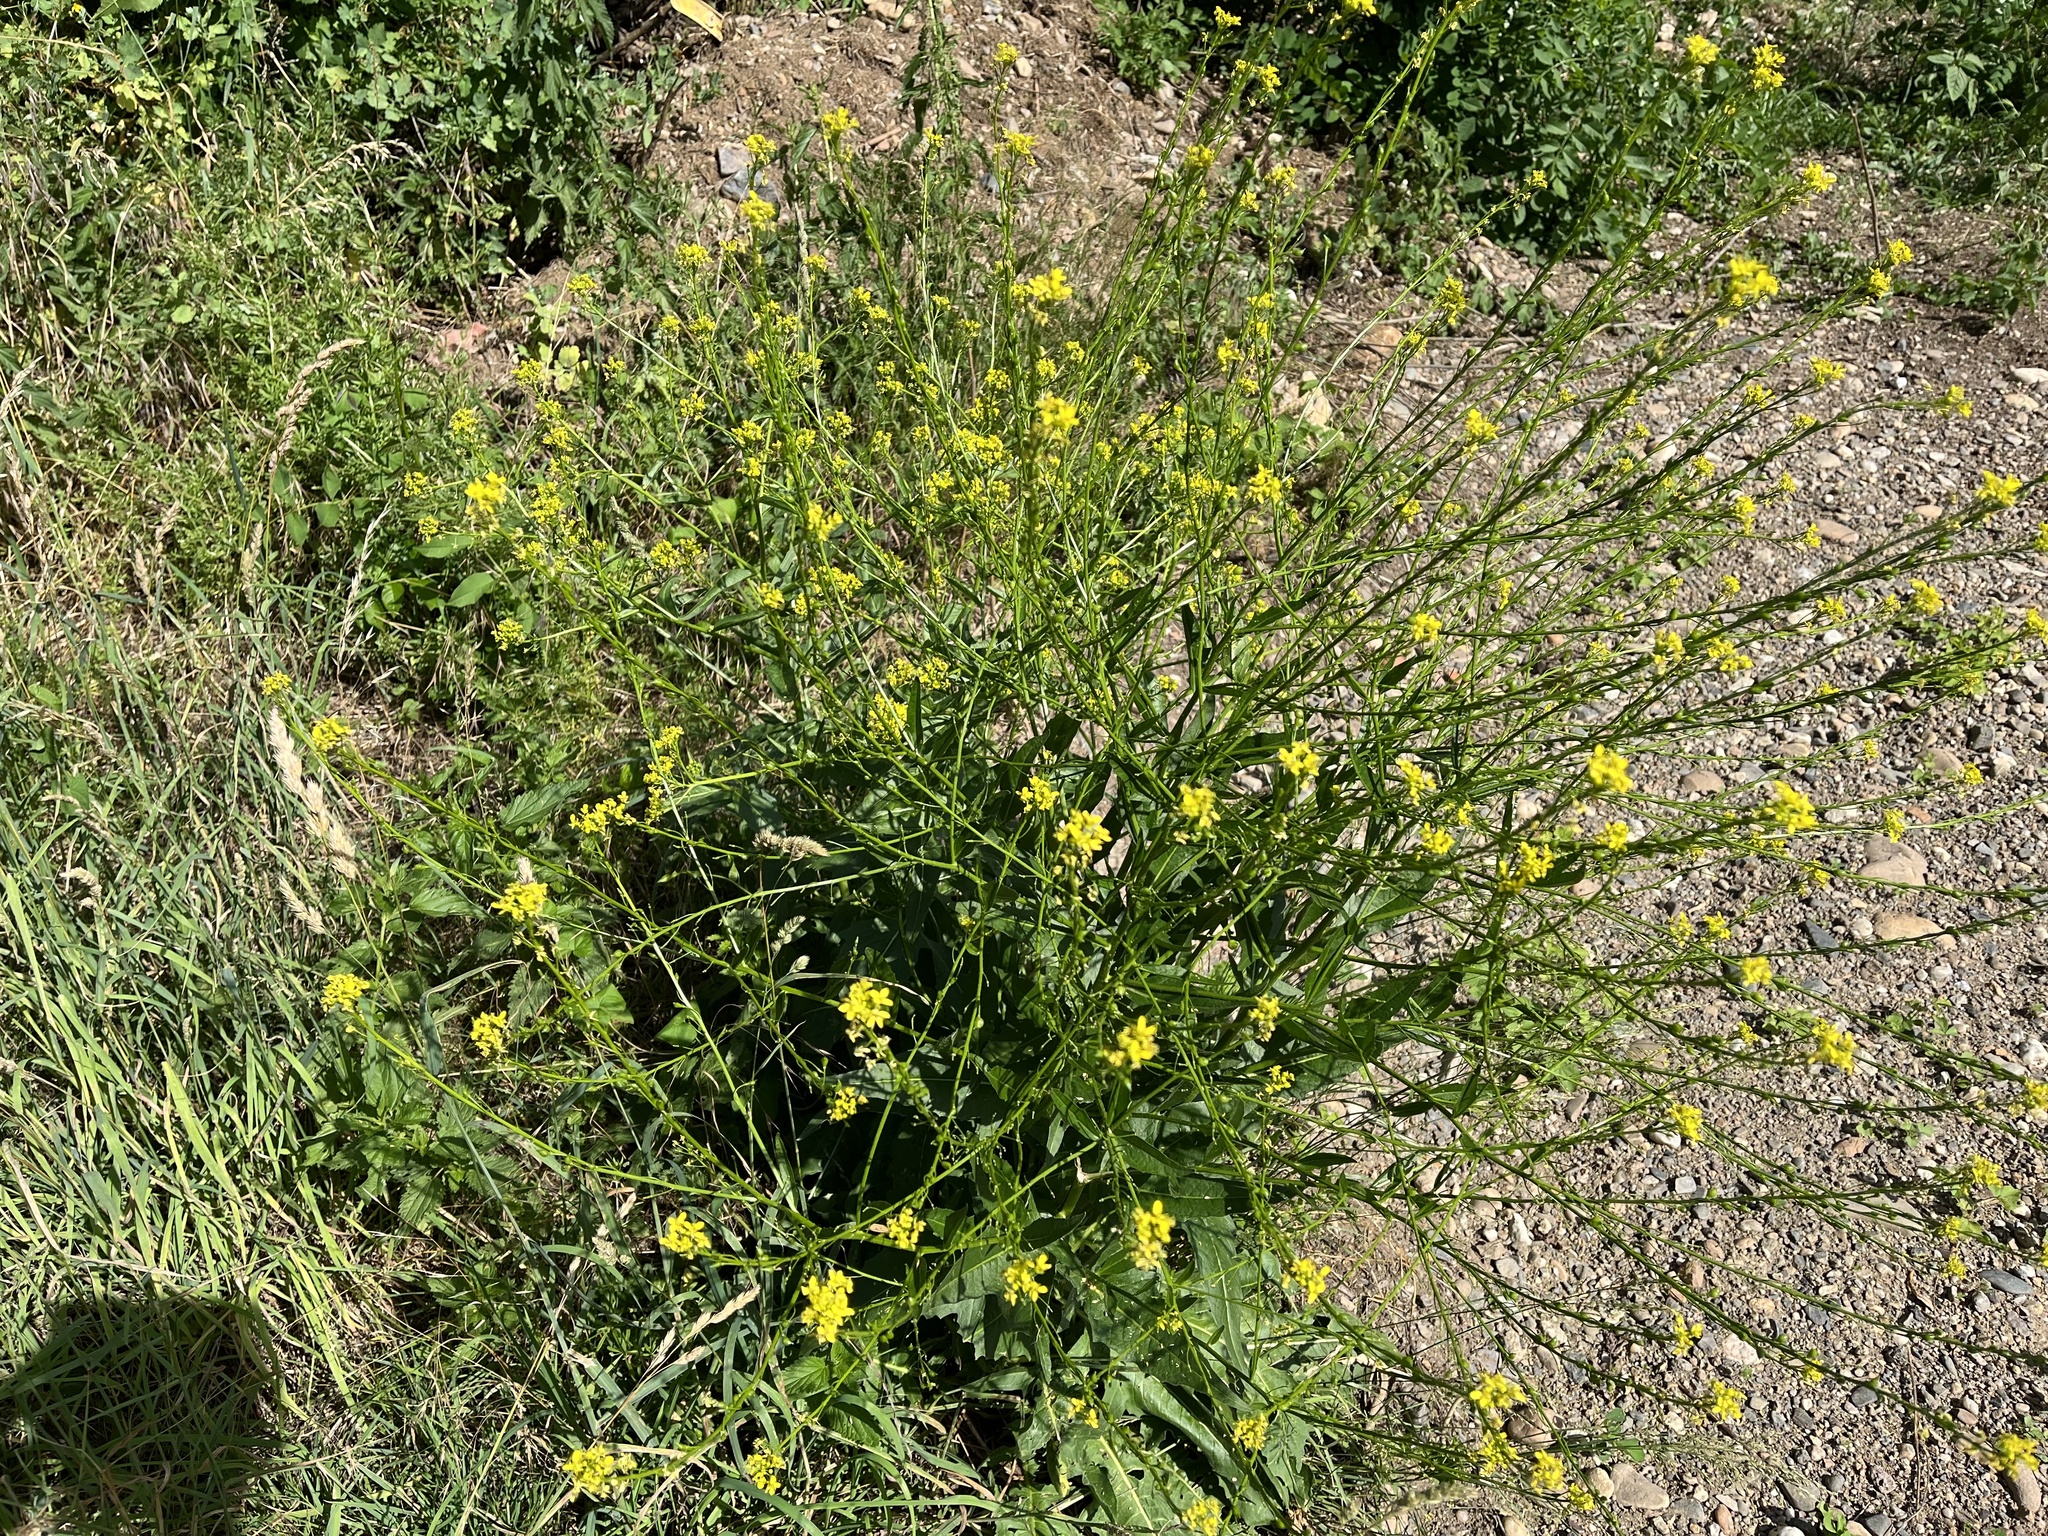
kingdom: Plantae
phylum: Tracheophyta
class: Magnoliopsida
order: Brassicales
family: Brassicaceae
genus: Bunias
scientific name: Bunias orientalis
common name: Warty-cabbage
